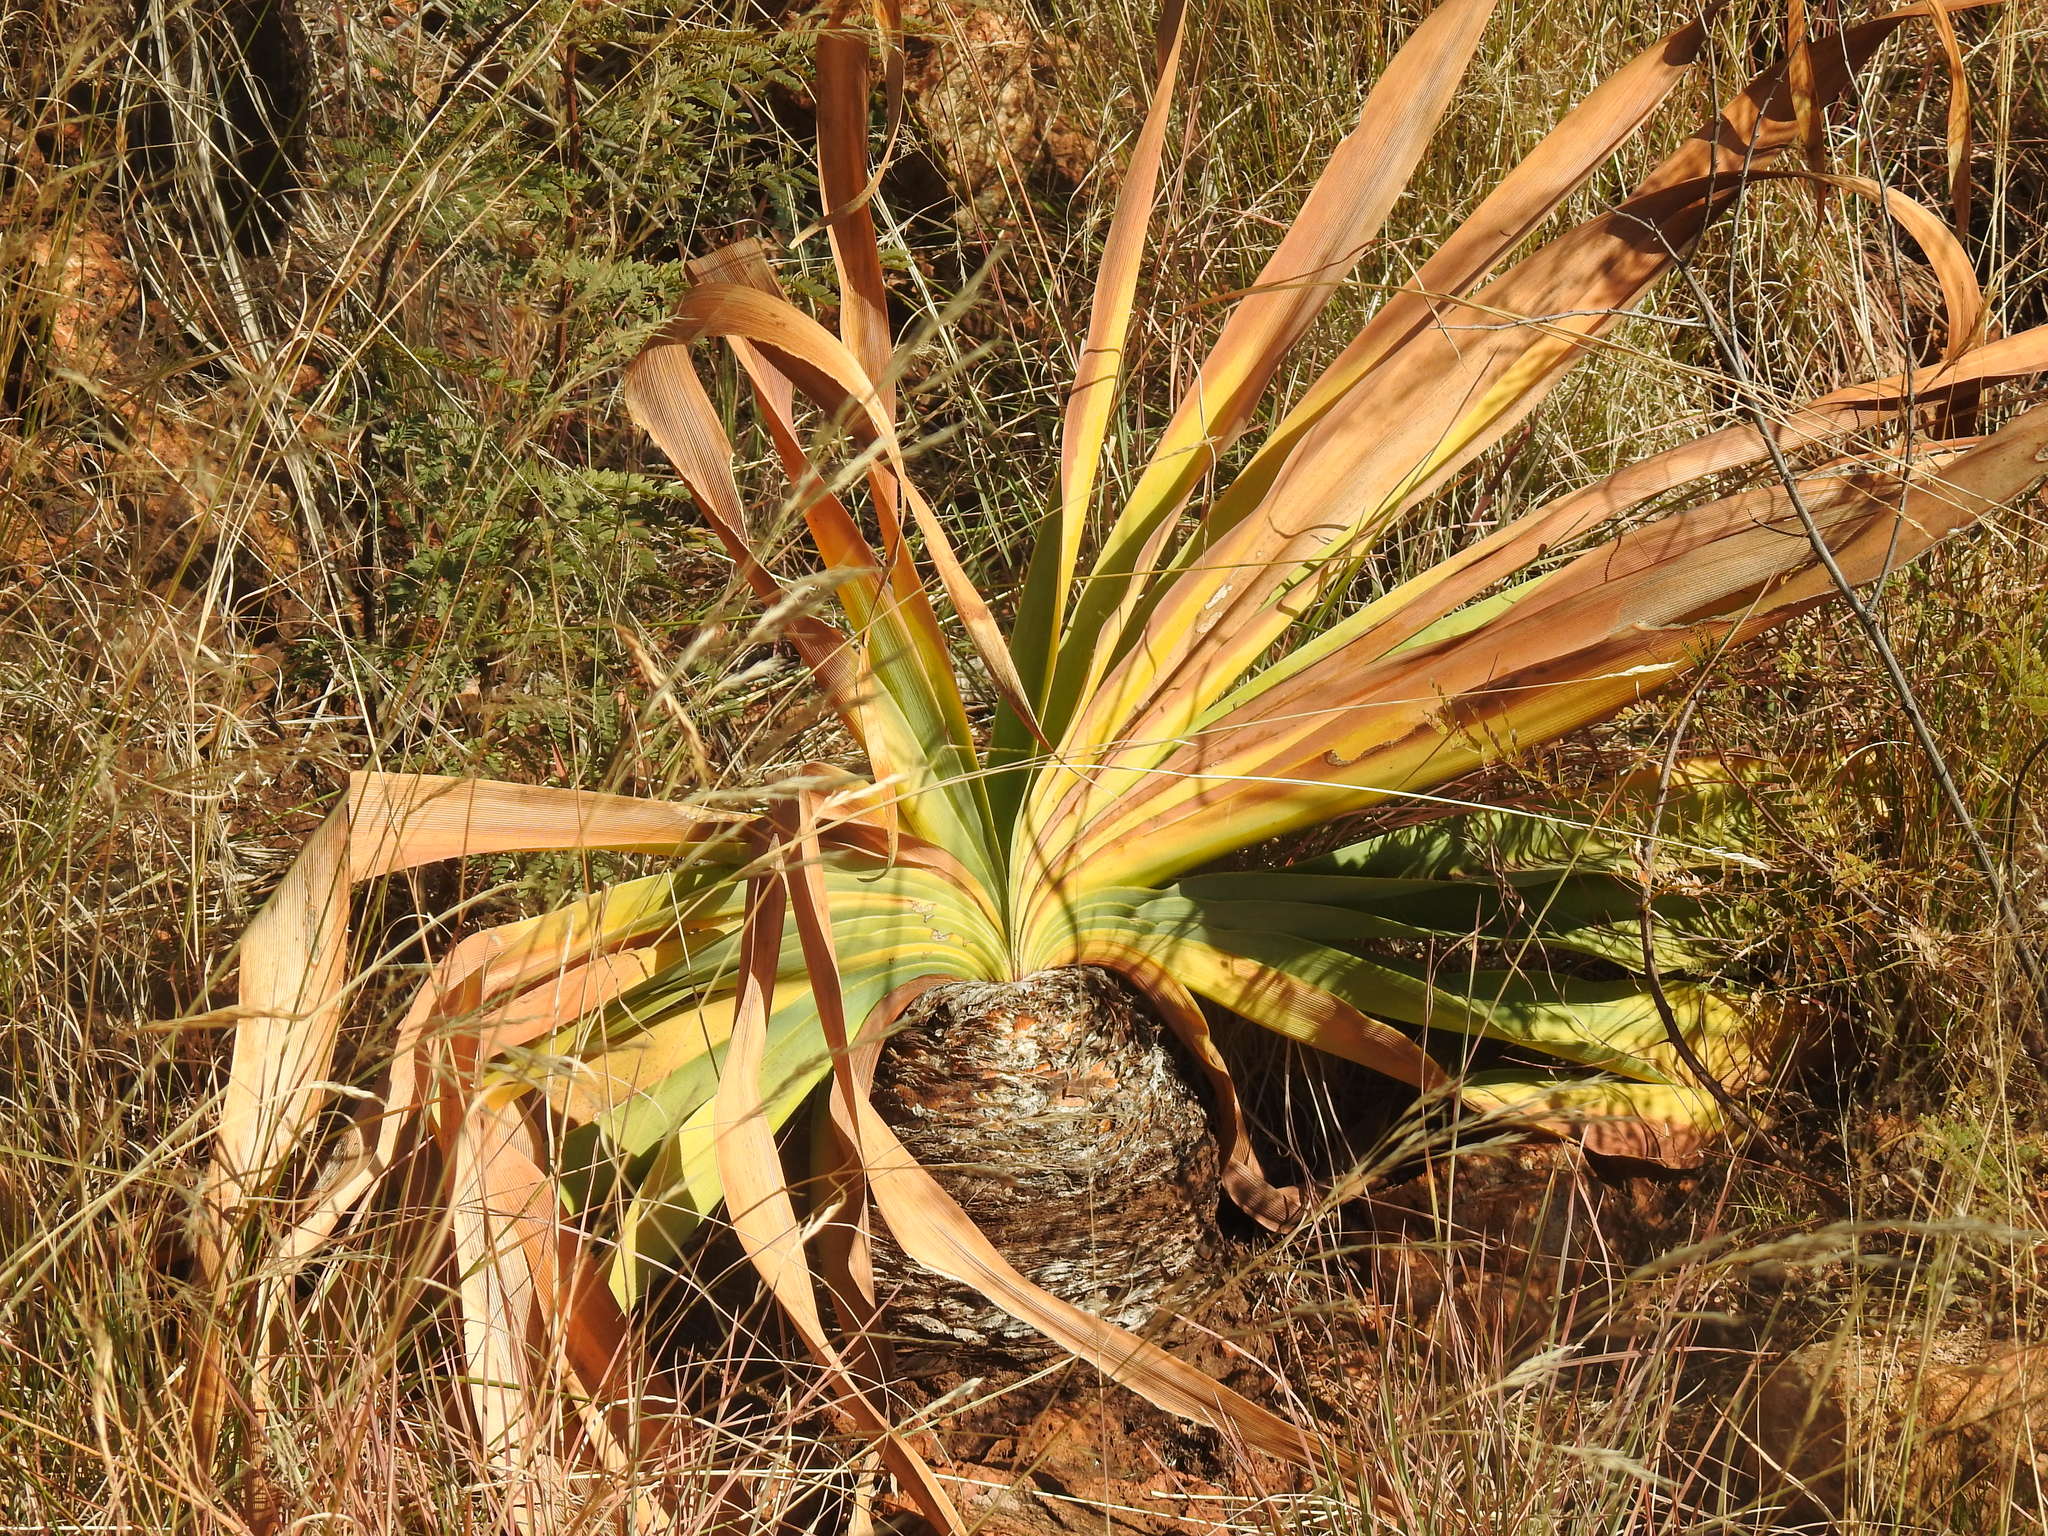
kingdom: Plantae
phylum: Tracheophyta
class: Liliopsida
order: Asparagales
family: Amaryllidaceae
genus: Boophone
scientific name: Boophone disticha
